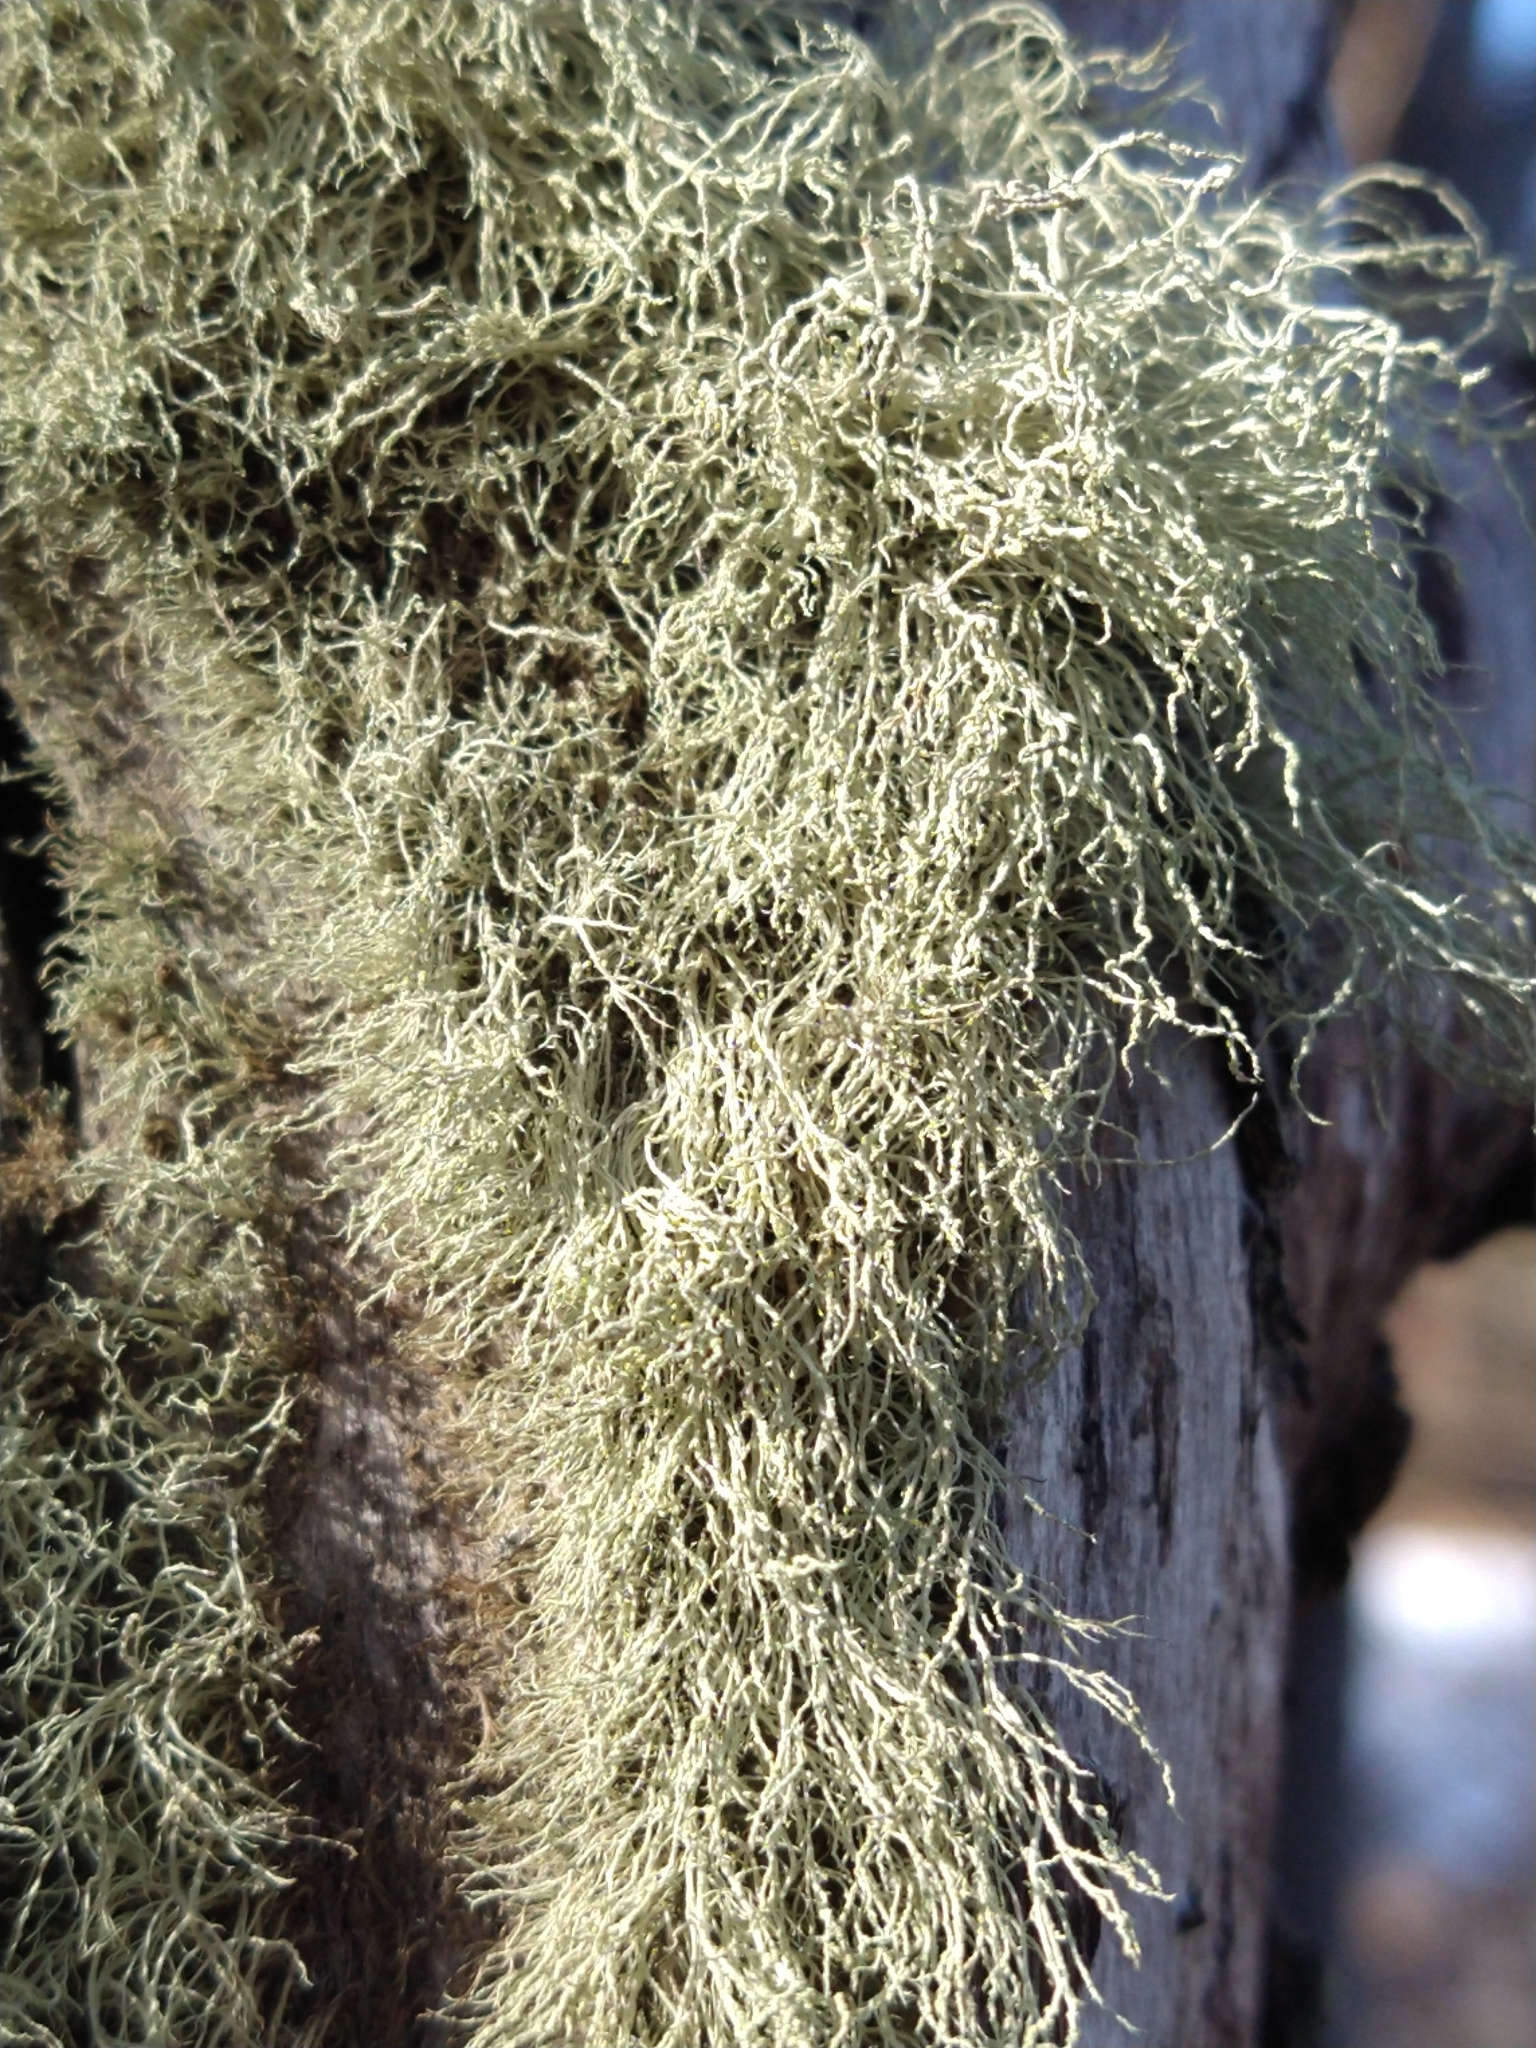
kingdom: Fungi
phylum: Ascomycota
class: Lecanoromycetes
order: Lecanorales
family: Parmeliaceae
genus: Usnea
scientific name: Usnea
